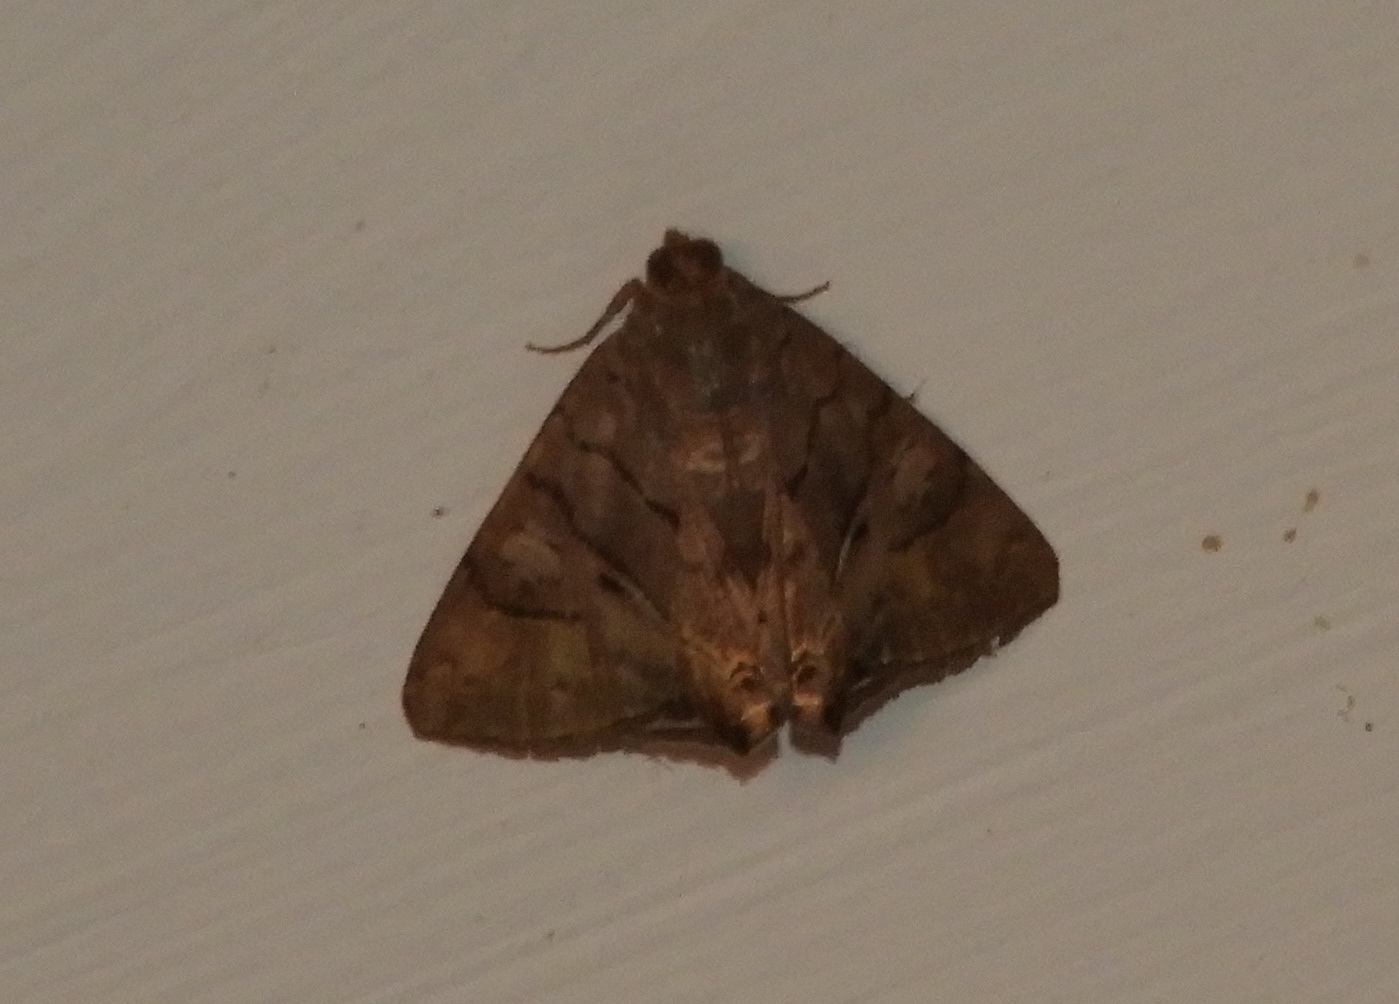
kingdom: Animalia
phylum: Arthropoda
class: Insecta
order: Lepidoptera
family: Erebidae
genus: Eulepidotis
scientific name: Eulepidotis
